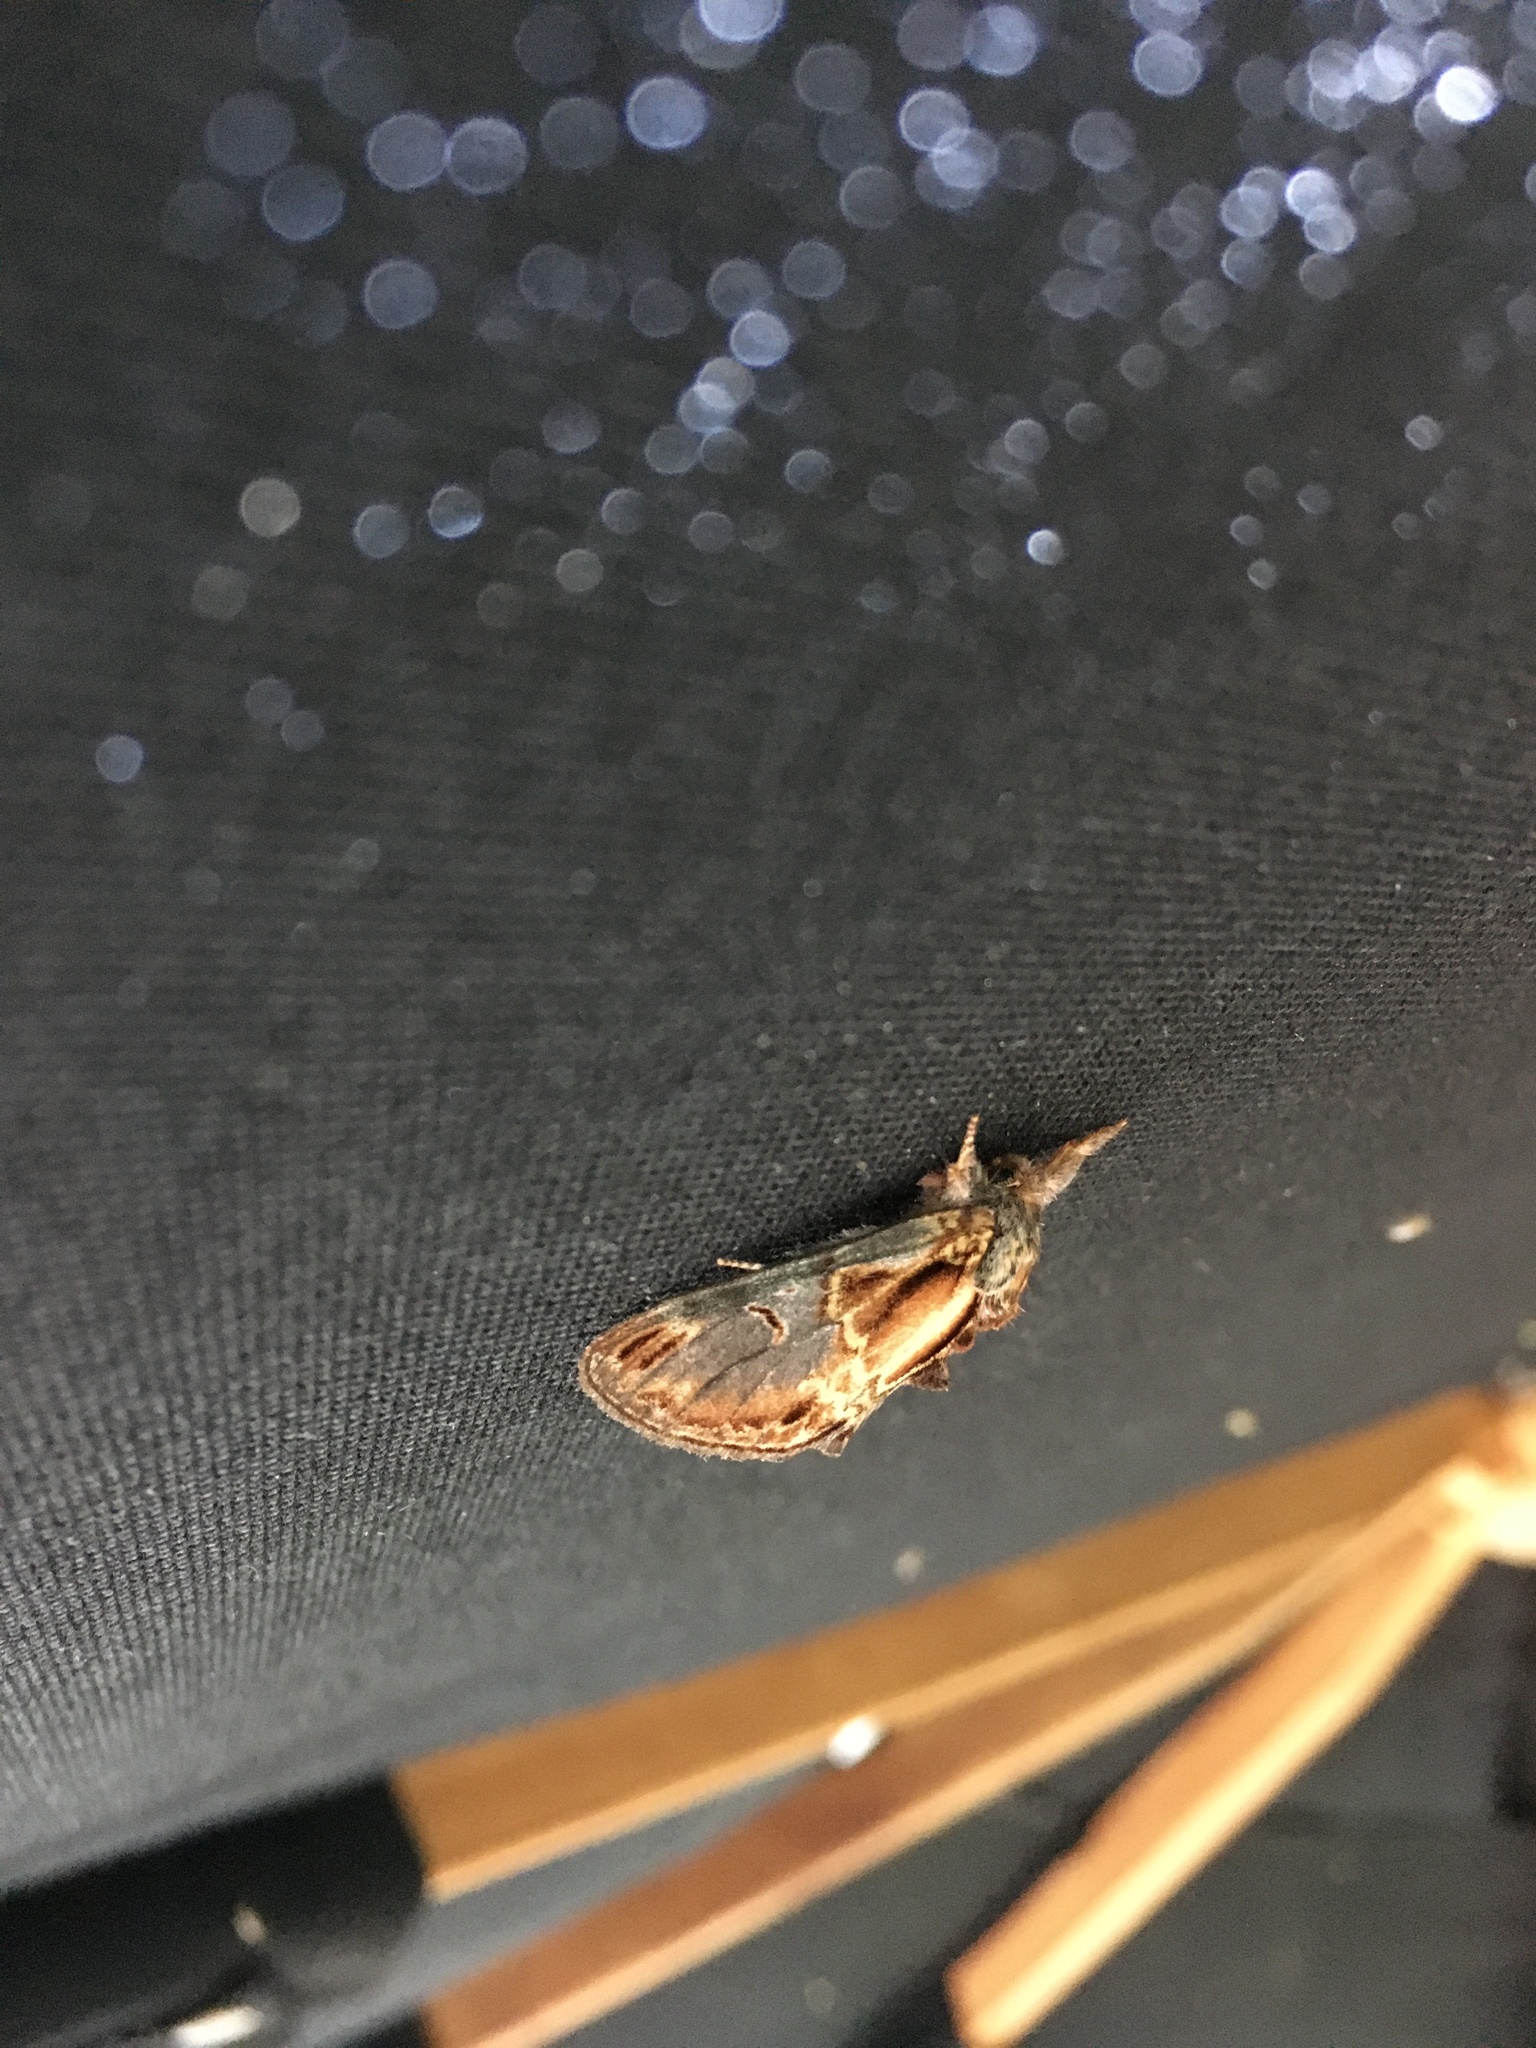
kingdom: Animalia
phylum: Arthropoda
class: Insecta
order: Lepidoptera
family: Notodontidae
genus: Notodonta
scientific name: Notodonta scitipennis
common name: Finned-willow prominent moth
